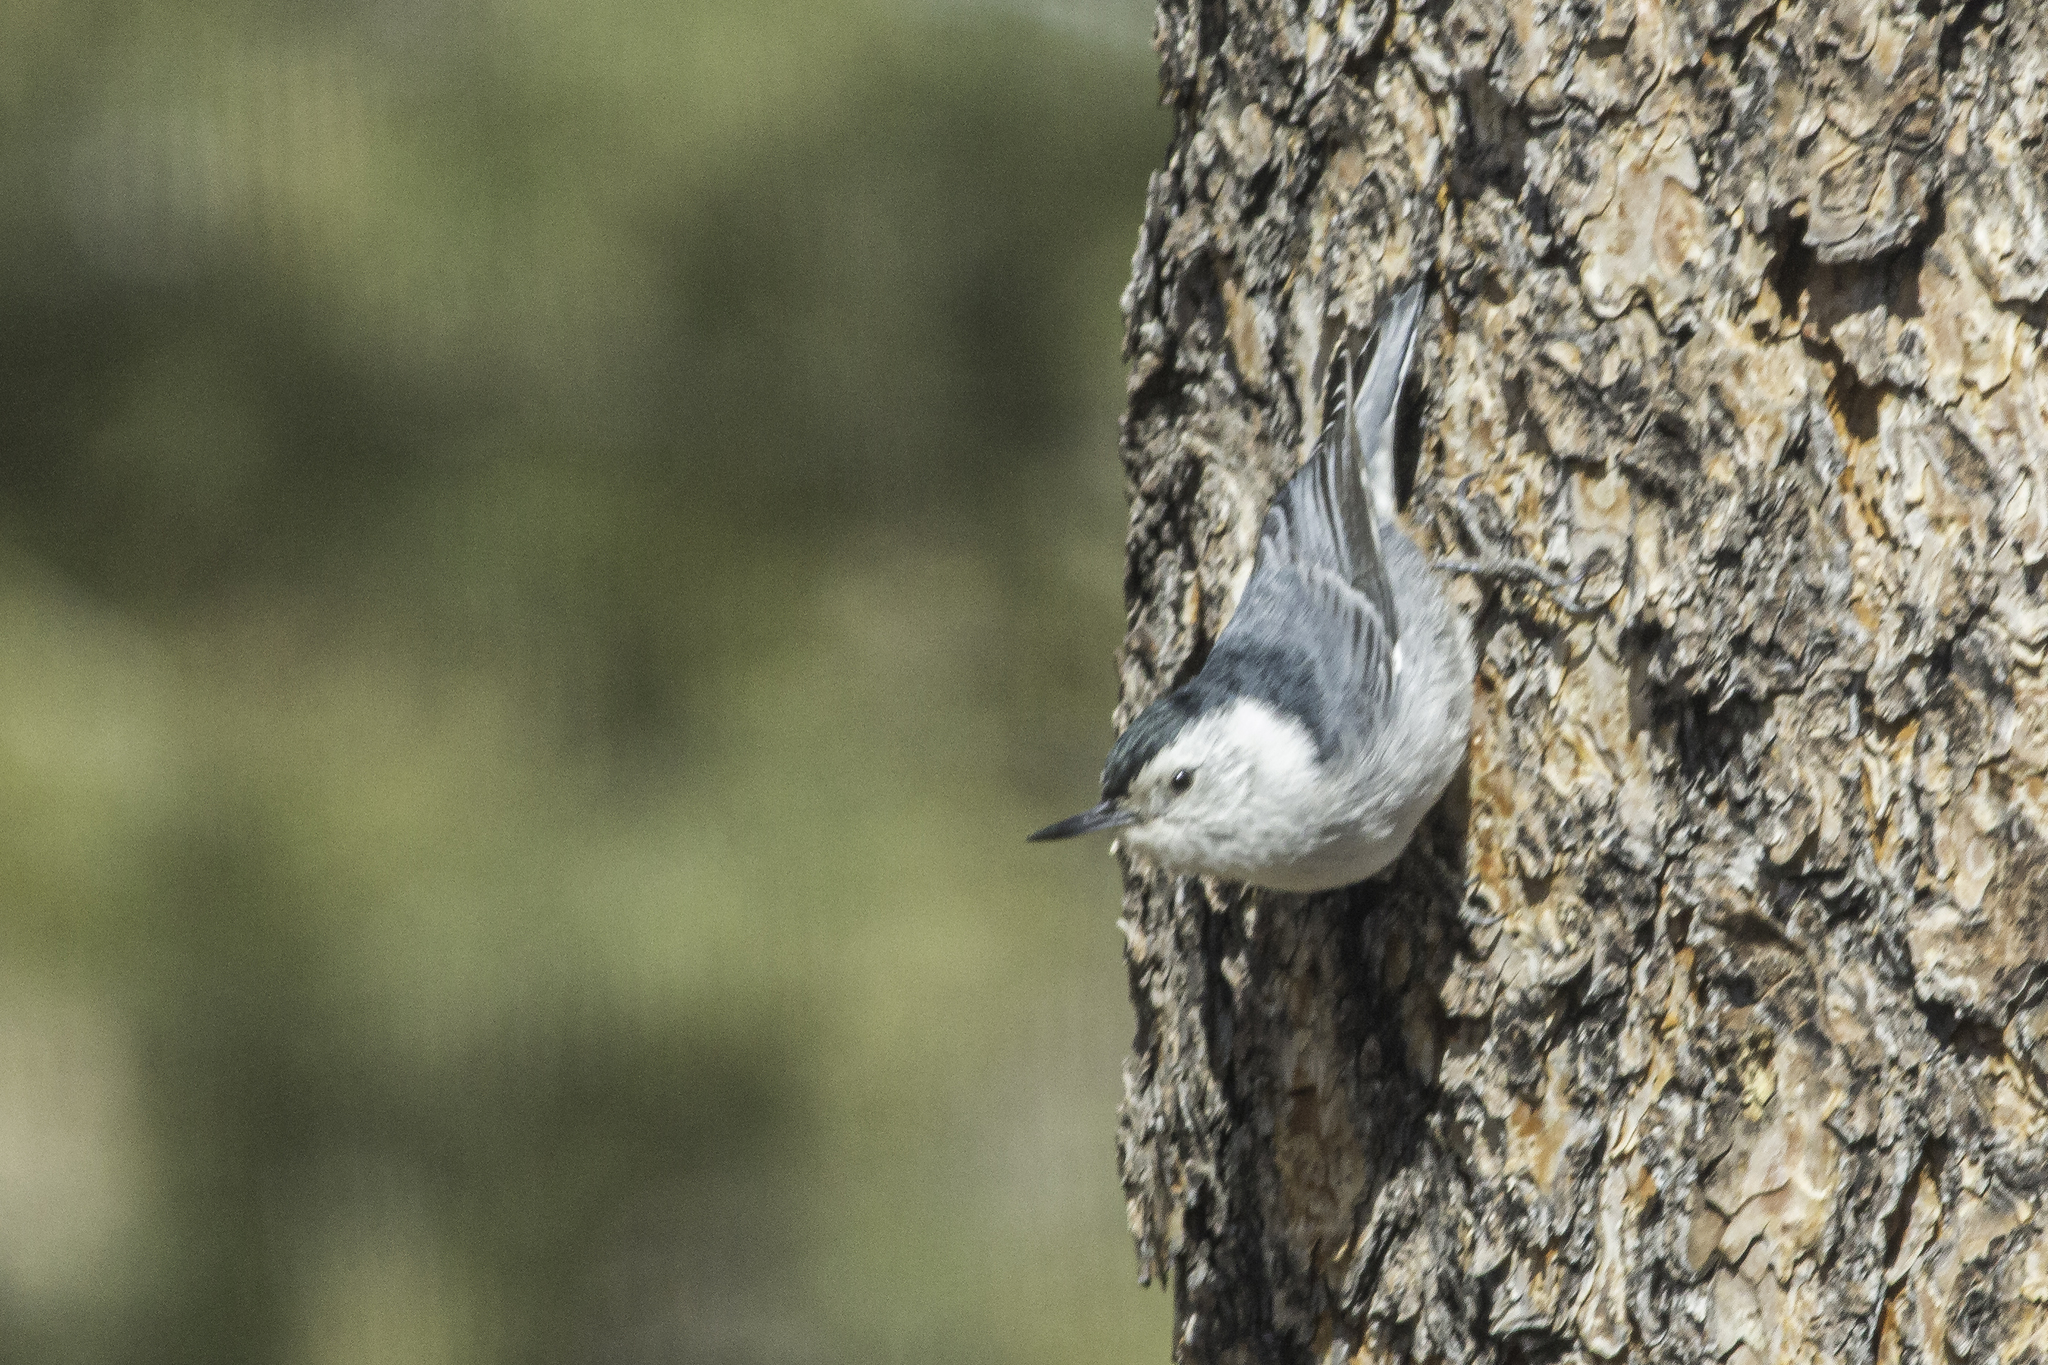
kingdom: Animalia
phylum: Chordata
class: Aves
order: Passeriformes
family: Sittidae
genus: Sitta
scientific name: Sitta carolinensis
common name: White-breasted nuthatch
